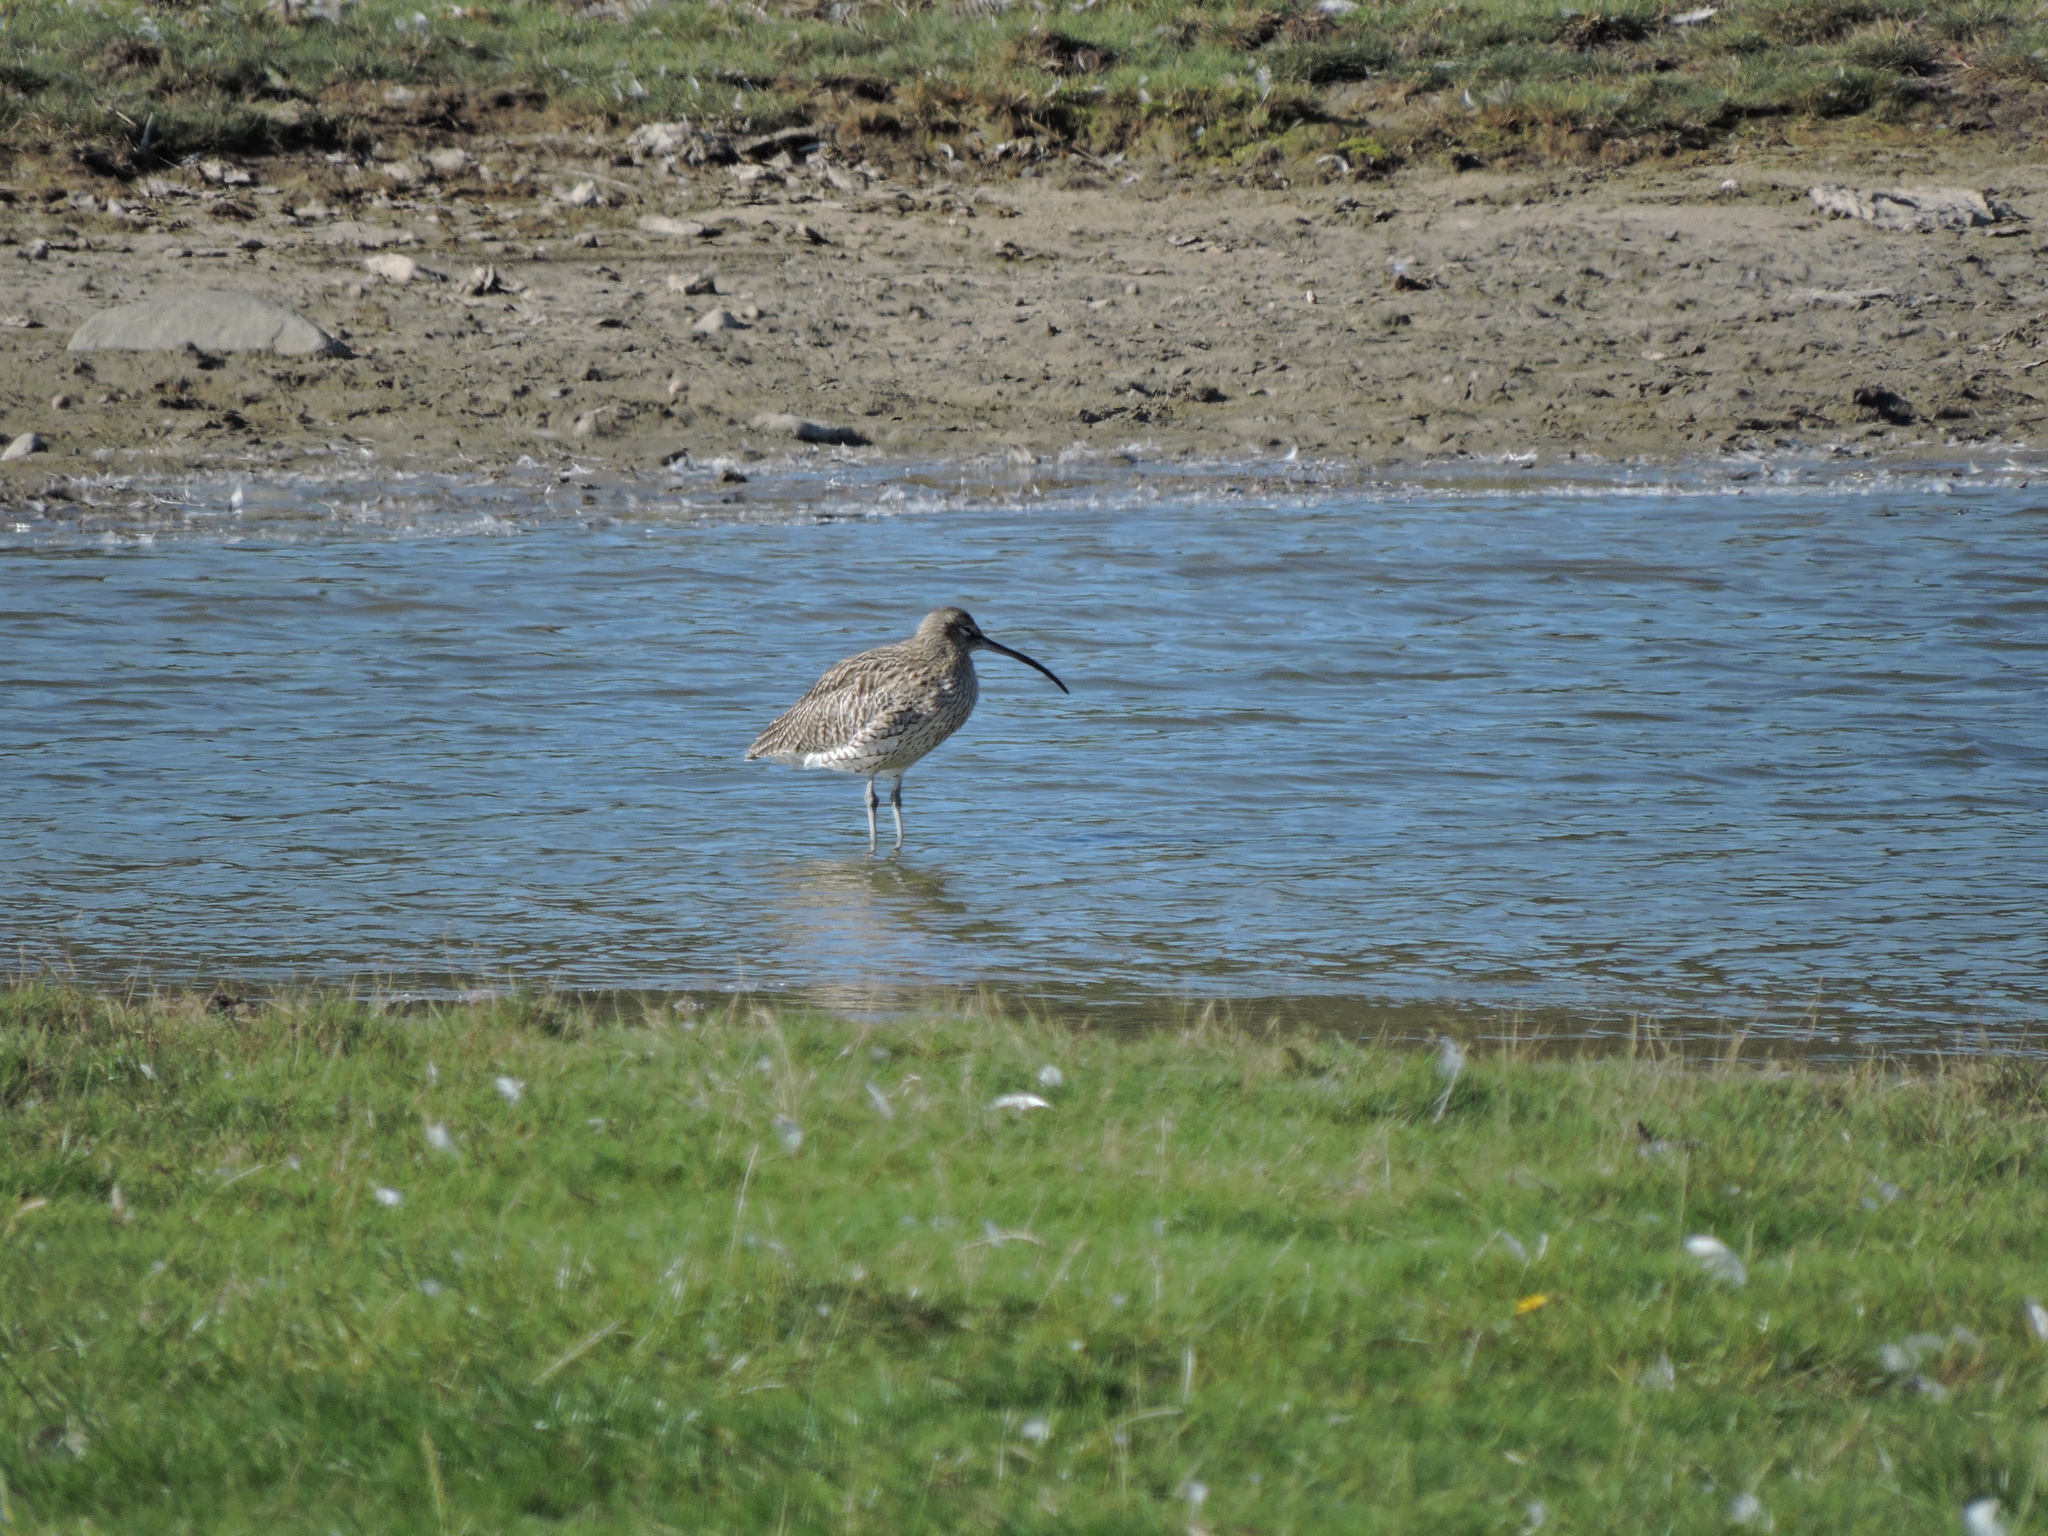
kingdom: Animalia
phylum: Chordata
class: Aves
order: Charadriiformes
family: Scolopacidae
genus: Numenius
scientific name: Numenius arquata
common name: Eurasian curlew
